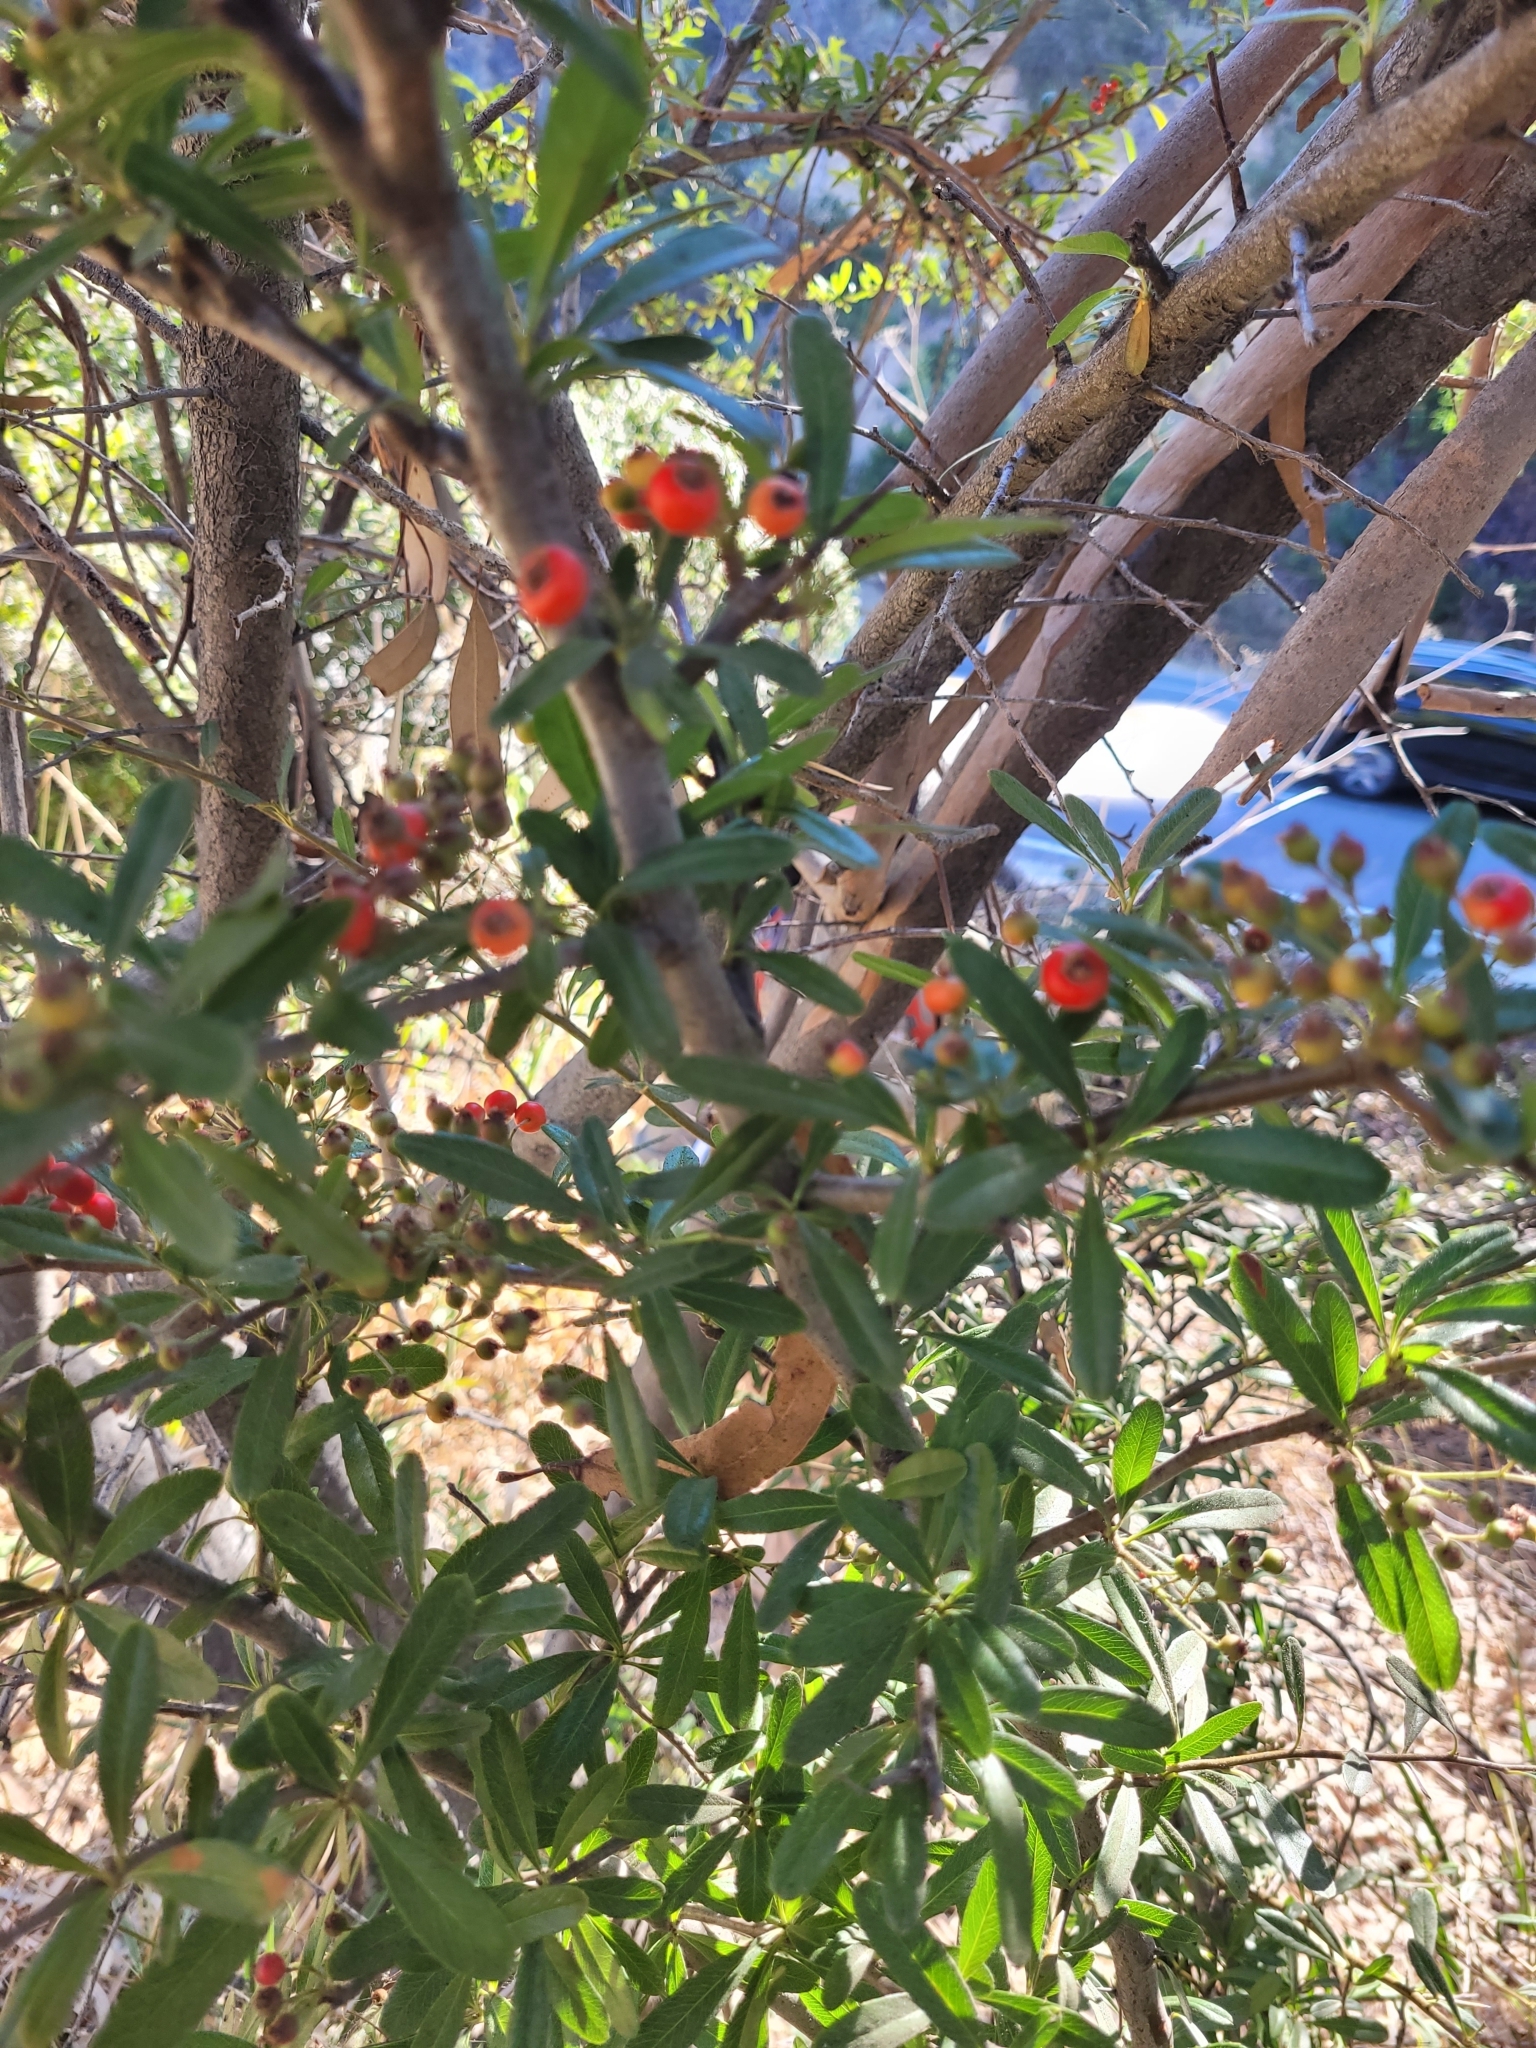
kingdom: Plantae
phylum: Tracheophyta
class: Magnoliopsida
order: Rosales
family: Rosaceae
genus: Pyracantha
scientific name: Pyracantha angustifolia
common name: Narrowleaf firethorn
